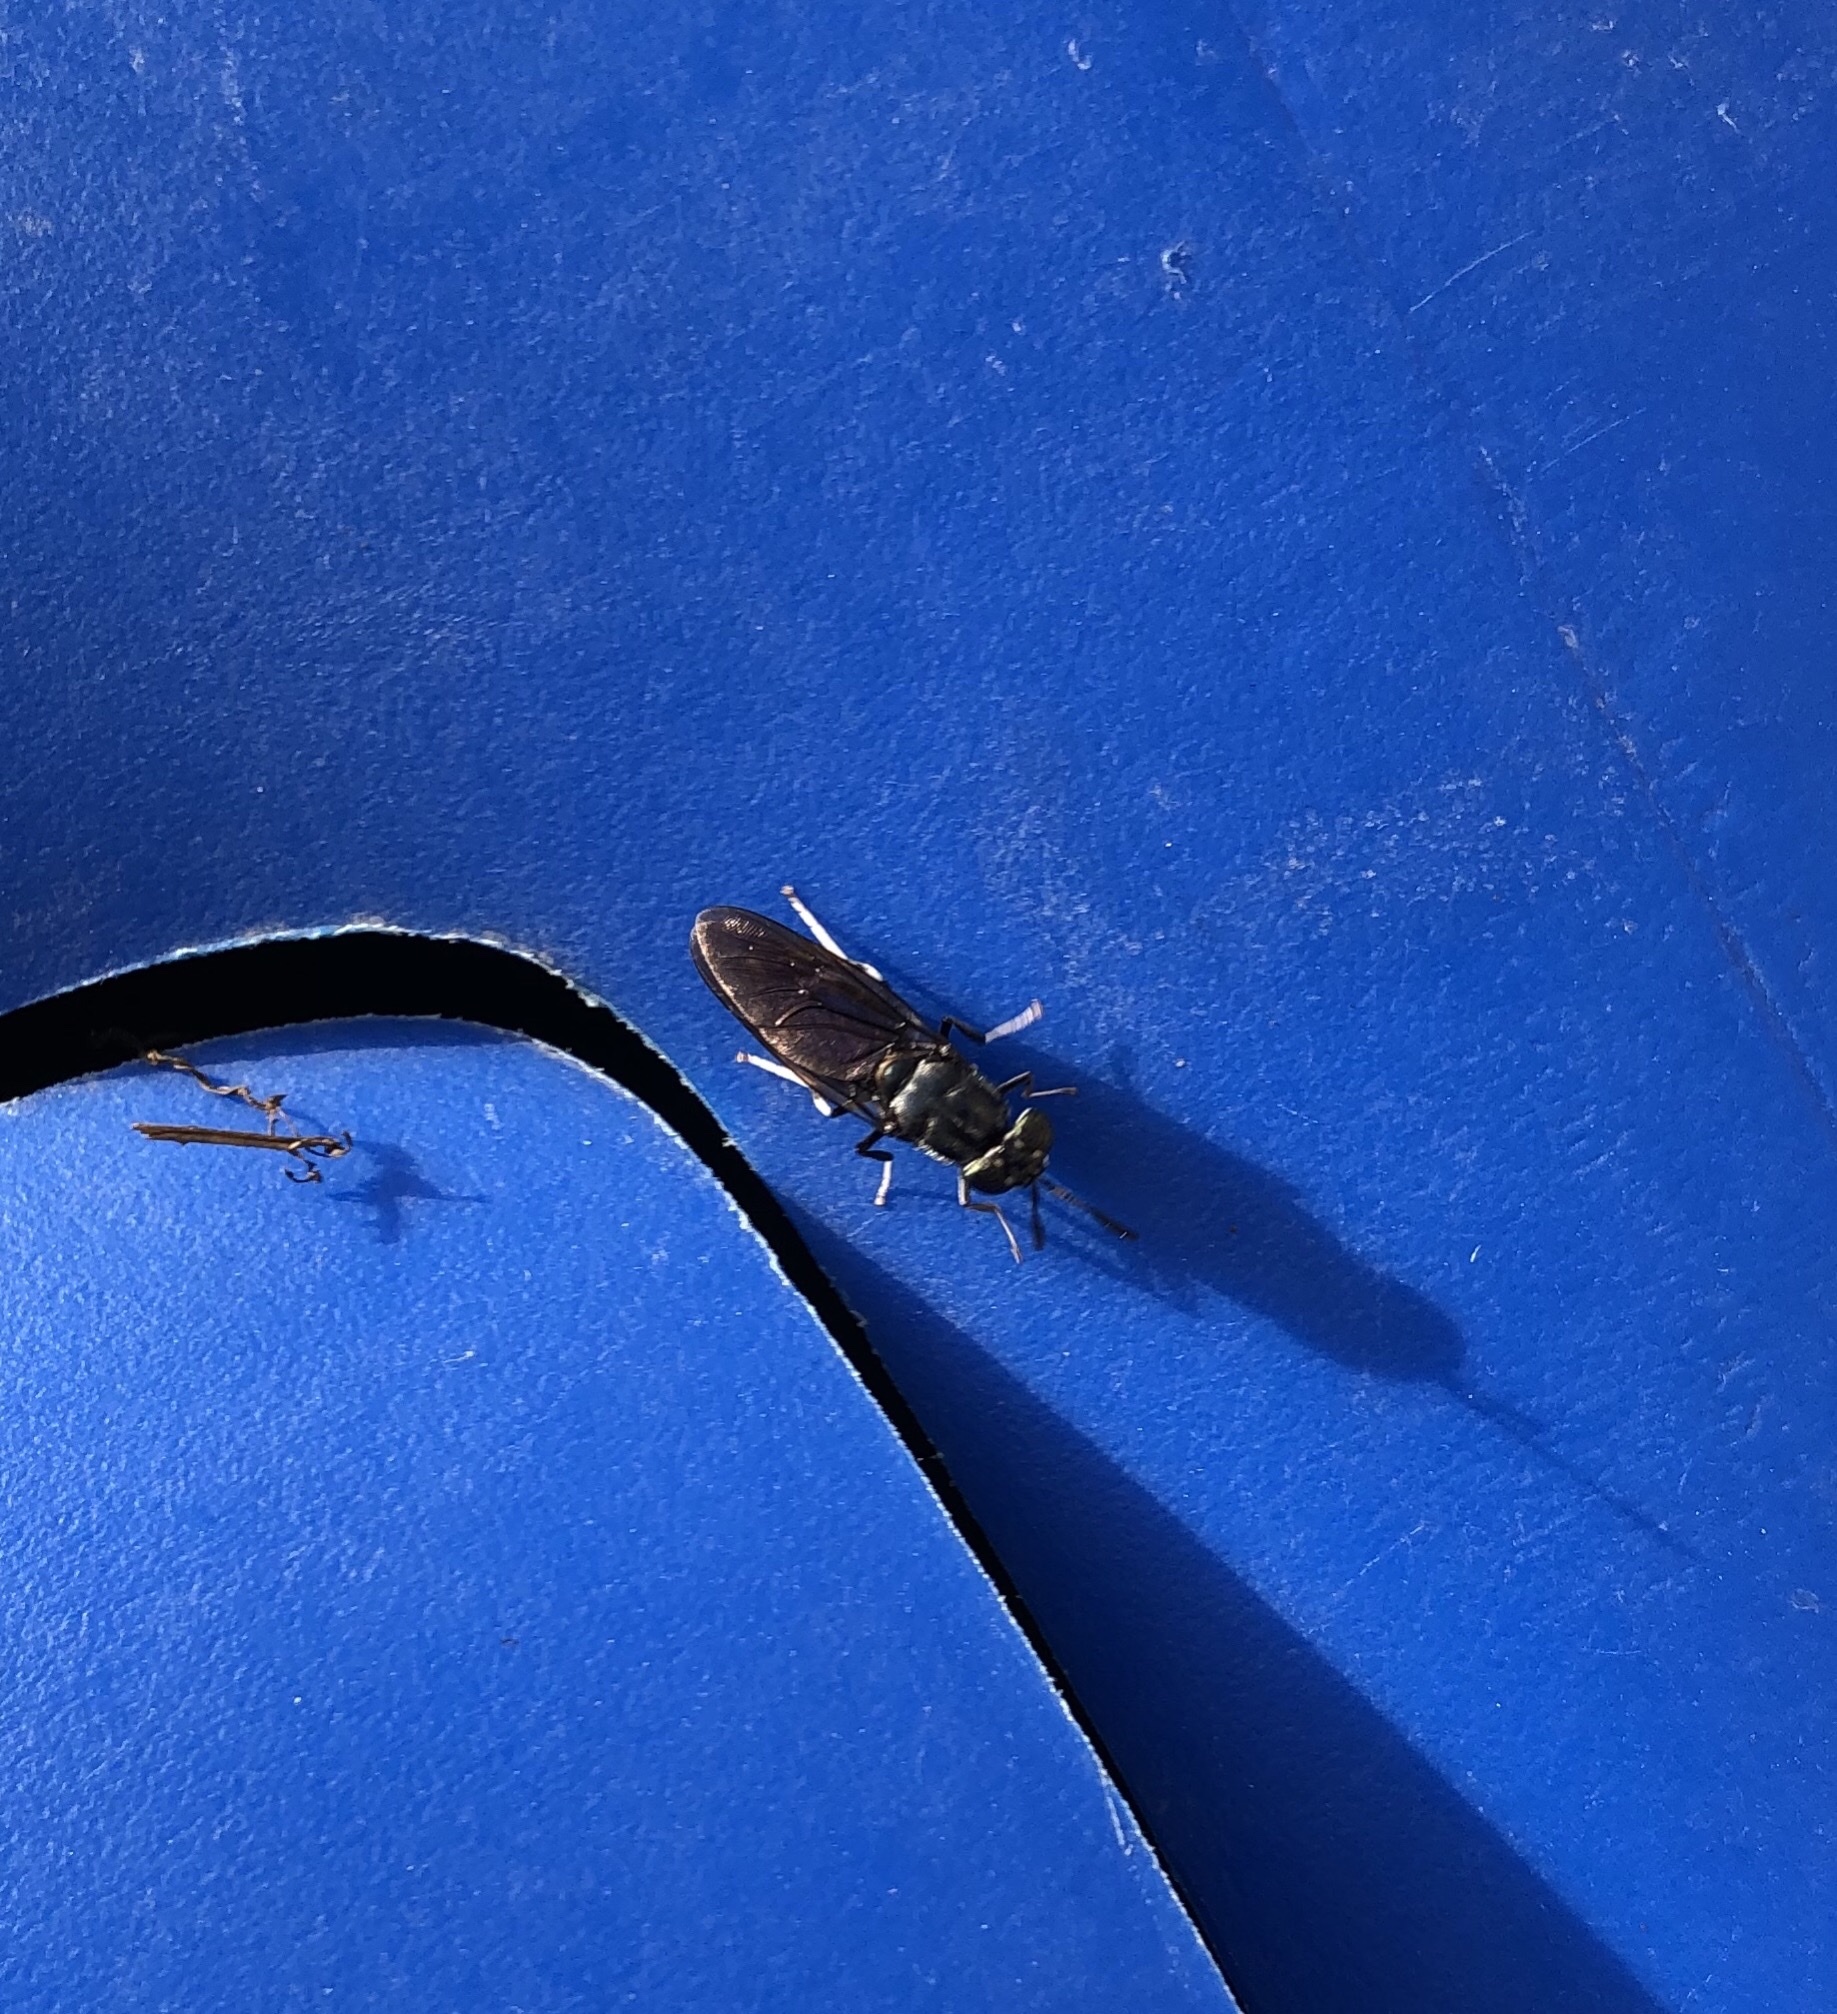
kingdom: Animalia
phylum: Arthropoda
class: Insecta
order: Diptera
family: Stratiomyidae
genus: Hermetia
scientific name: Hermetia illucens
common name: Black soldier fly
